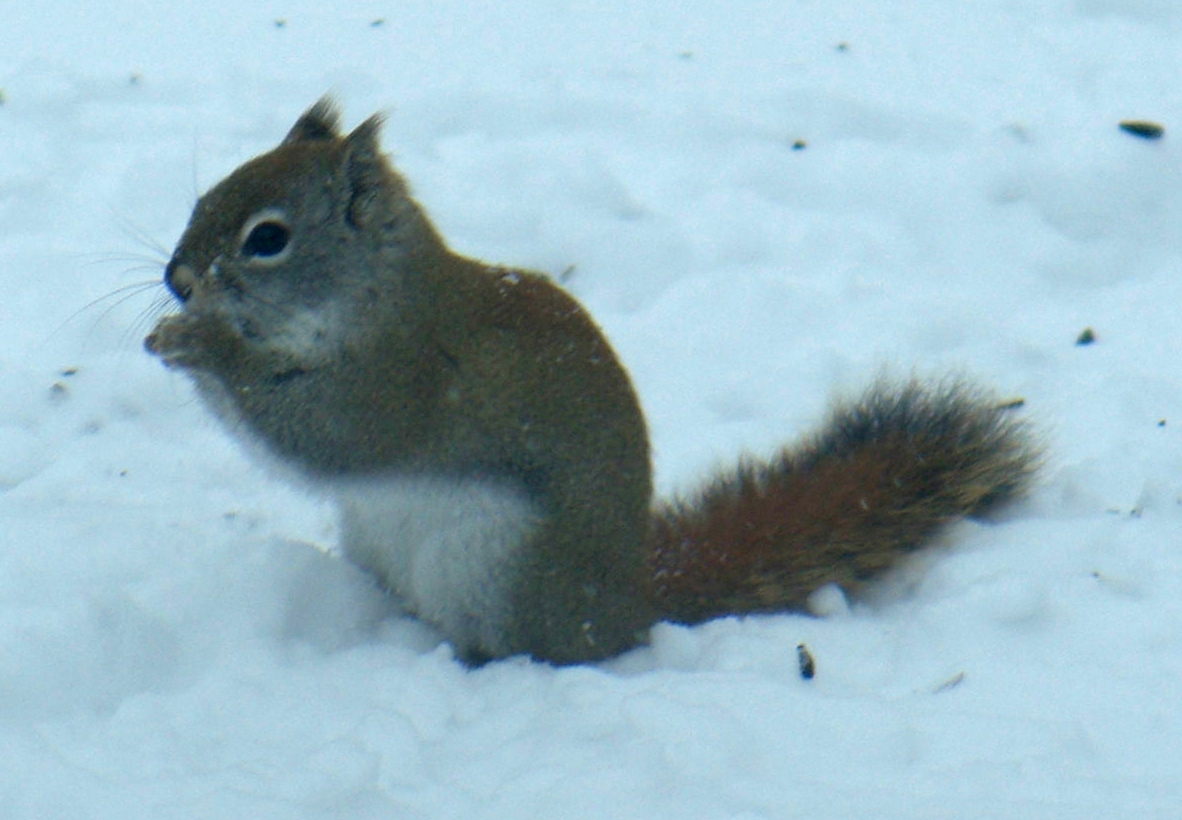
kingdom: Animalia
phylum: Chordata
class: Mammalia
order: Rodentia
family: Sciuridae
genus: Tamiasciurus
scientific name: Tamiasciurus hudsonicus
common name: Red squirrel
